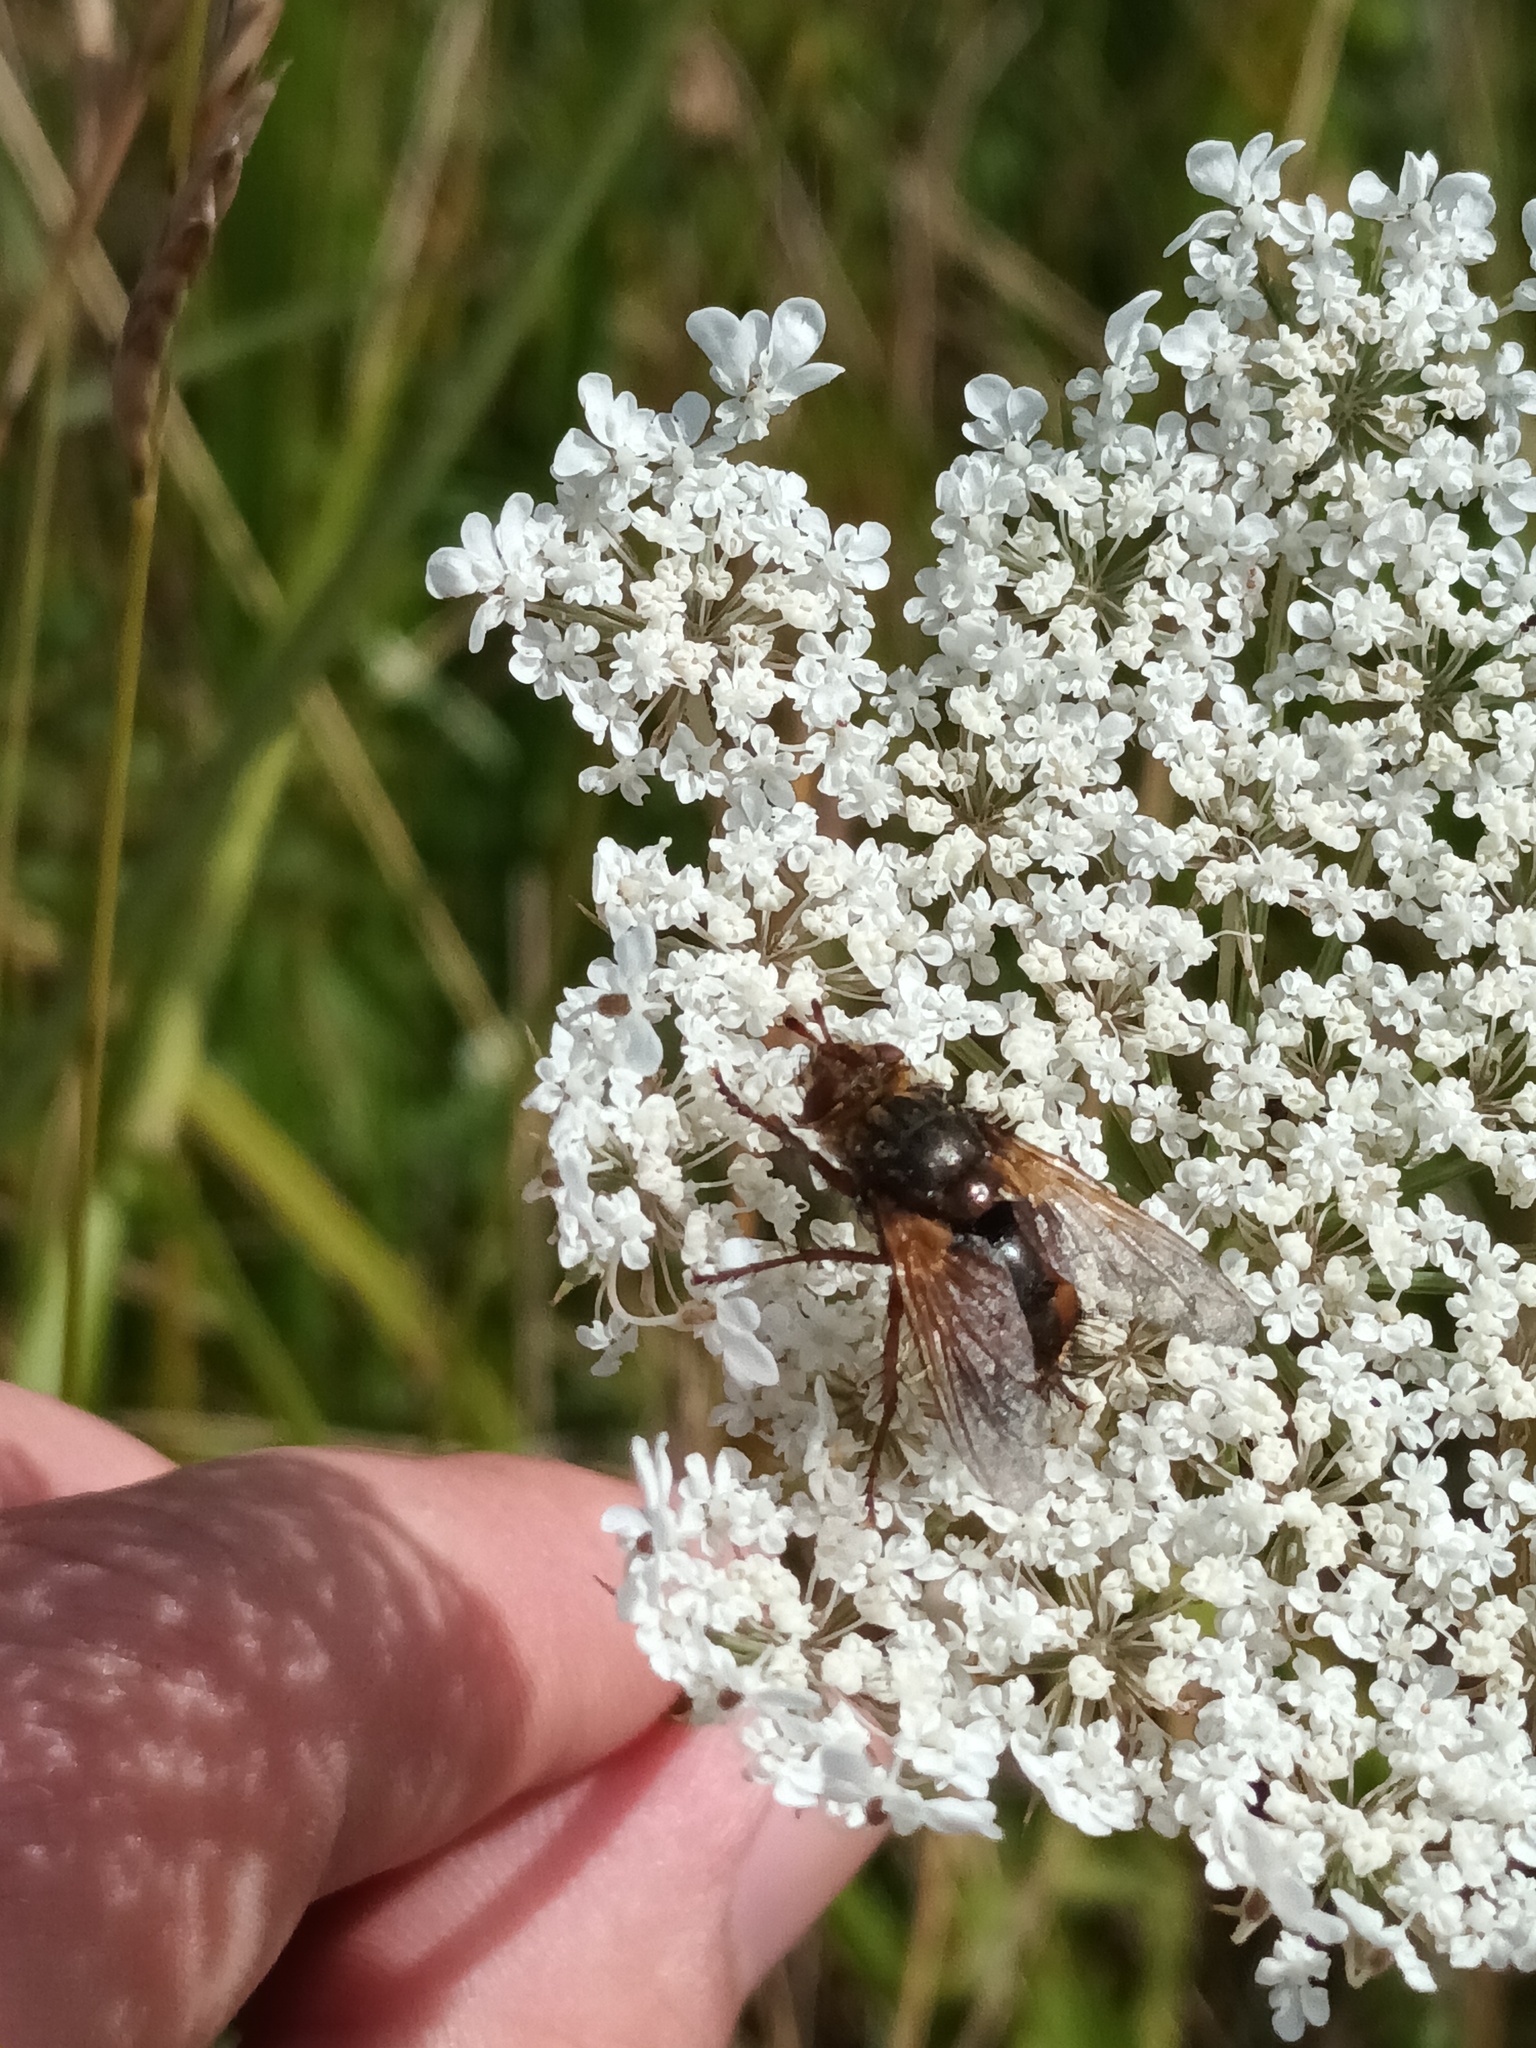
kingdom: Animalia
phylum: Arthropoda
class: Insecta
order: Diptera
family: Tachinidae
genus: Tachina
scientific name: Tachina fera
